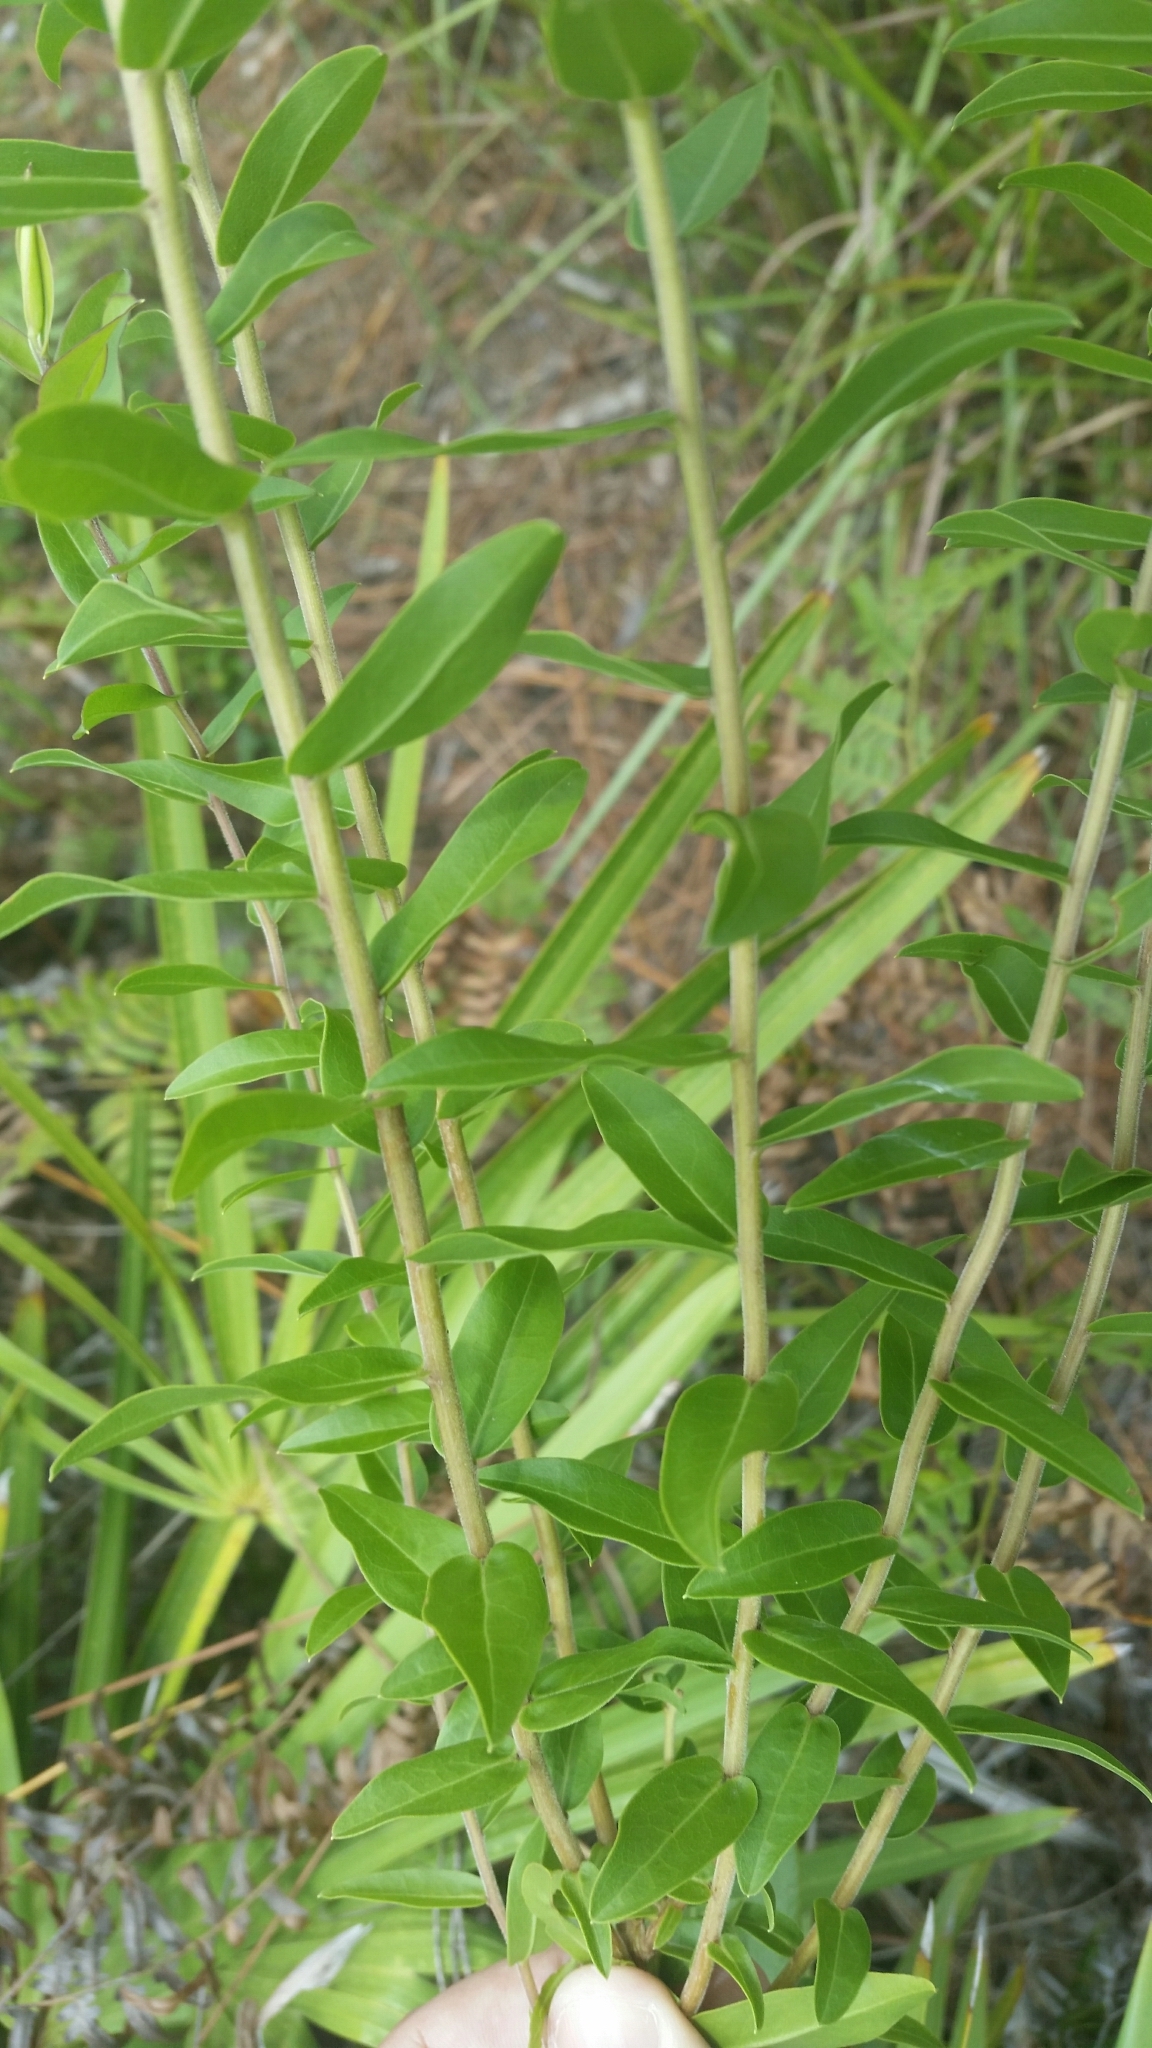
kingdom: Plantae
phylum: Tracheophyta
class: Magnoliopsida
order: Asterales
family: Asteraceae
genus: Solidago
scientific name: Solidago chapmanii
